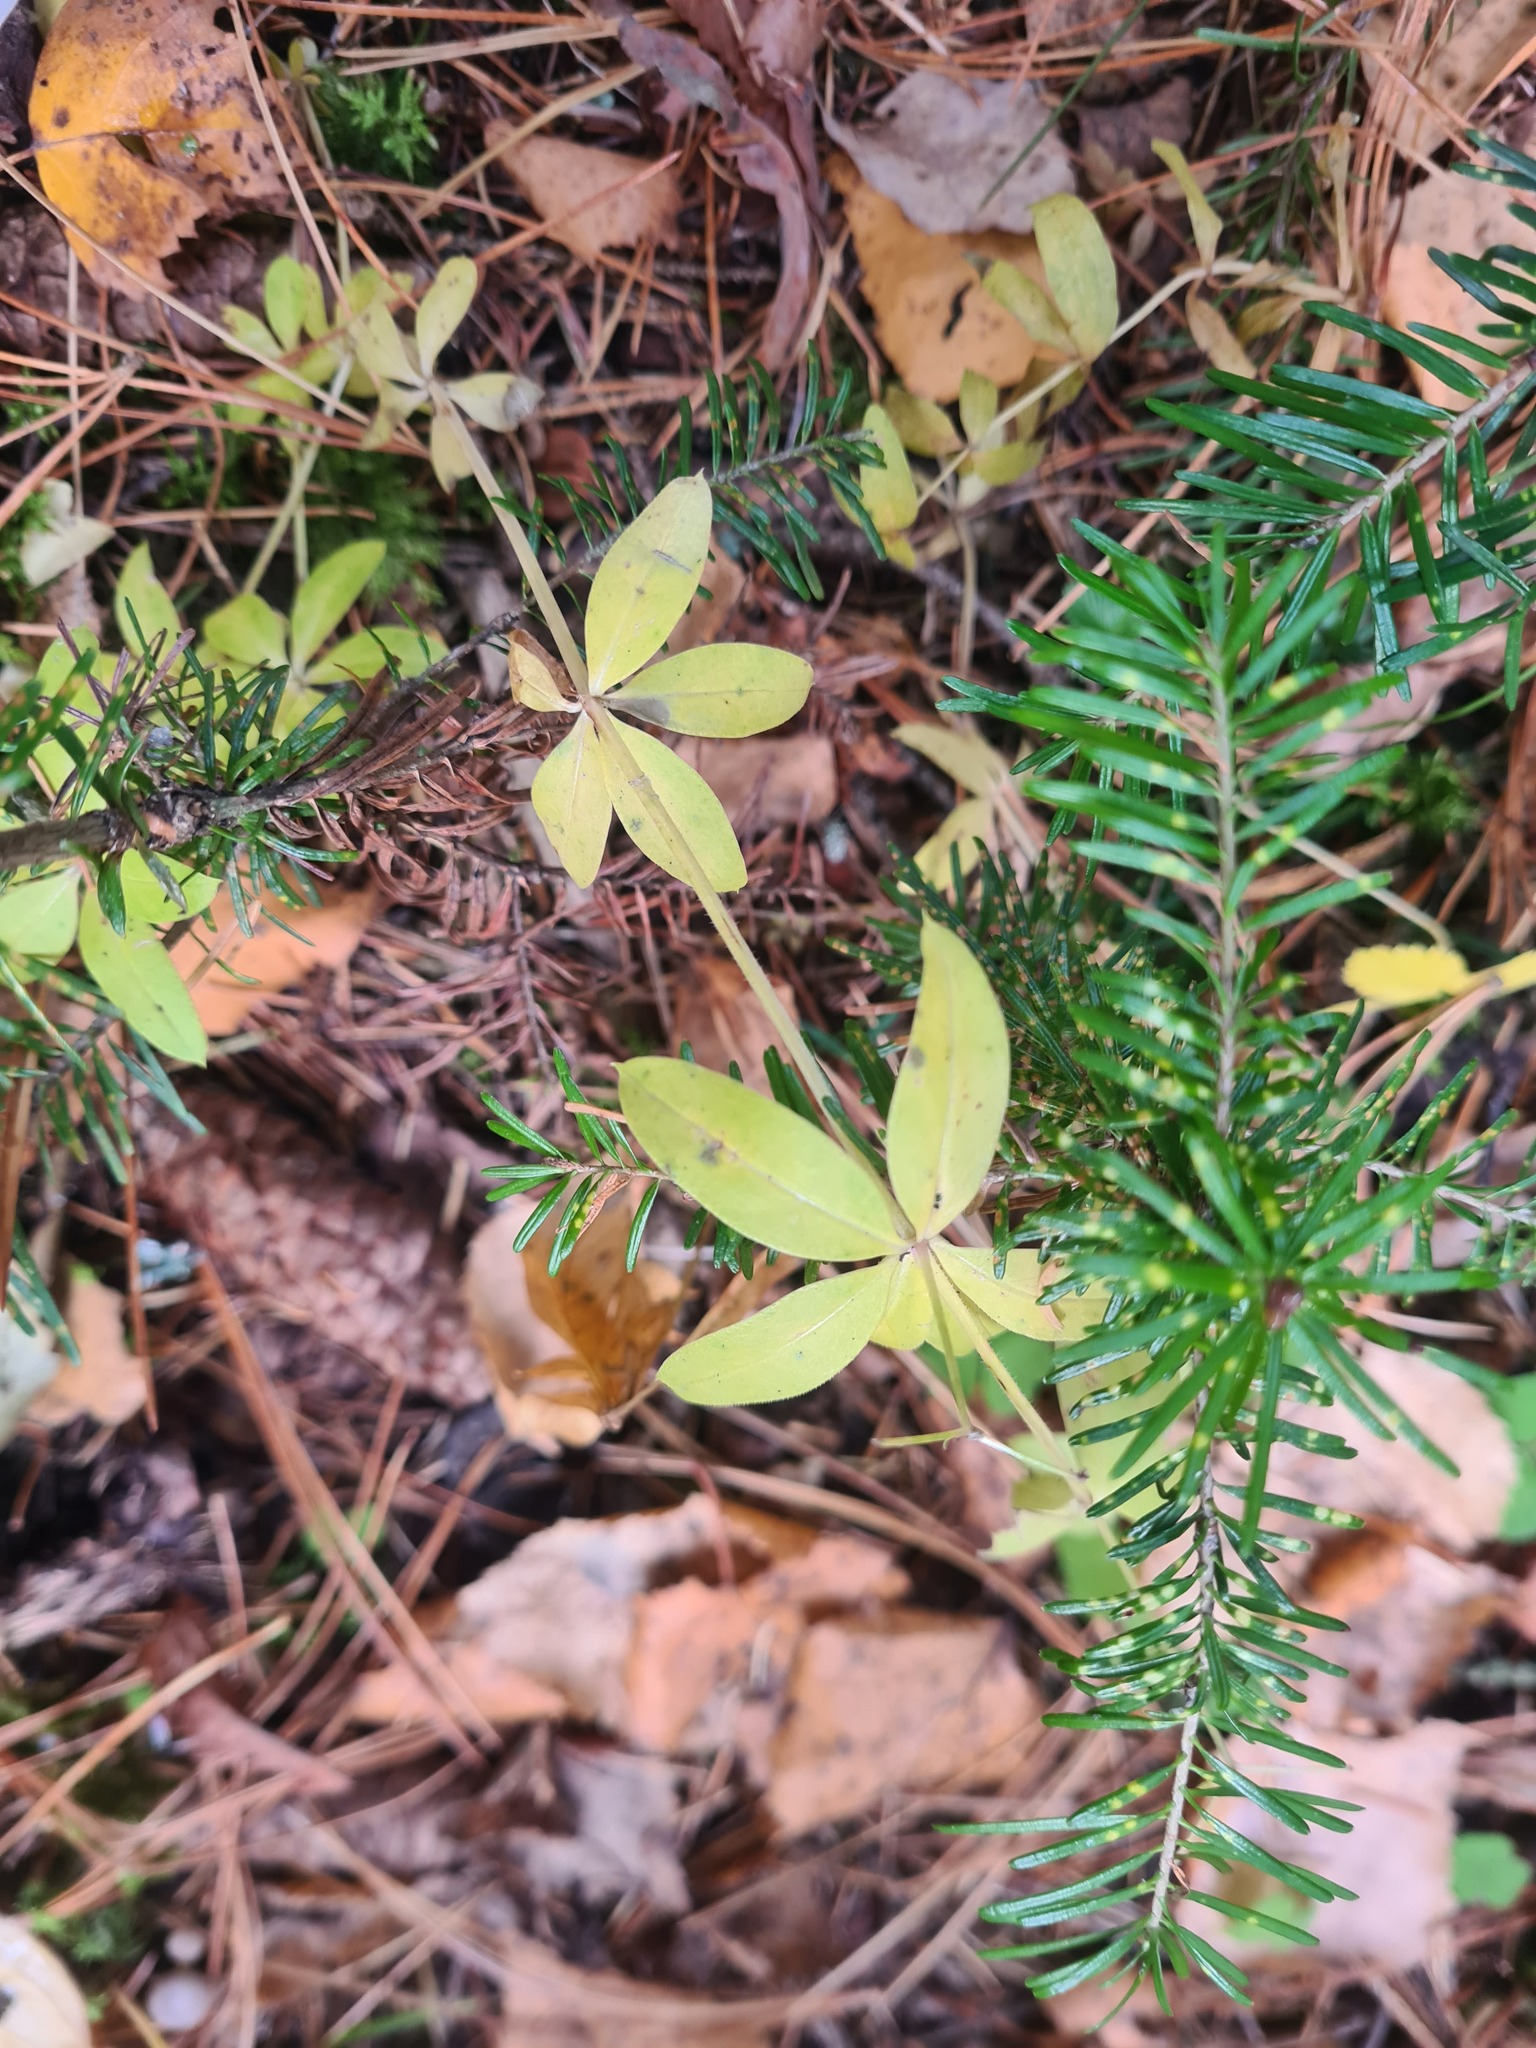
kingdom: Plantae
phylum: Tracheophyta
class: Magnoliopsida
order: Gentianales
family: Rubiaceae
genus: Galium
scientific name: Galium triflorum
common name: Fragrant bedstraw
